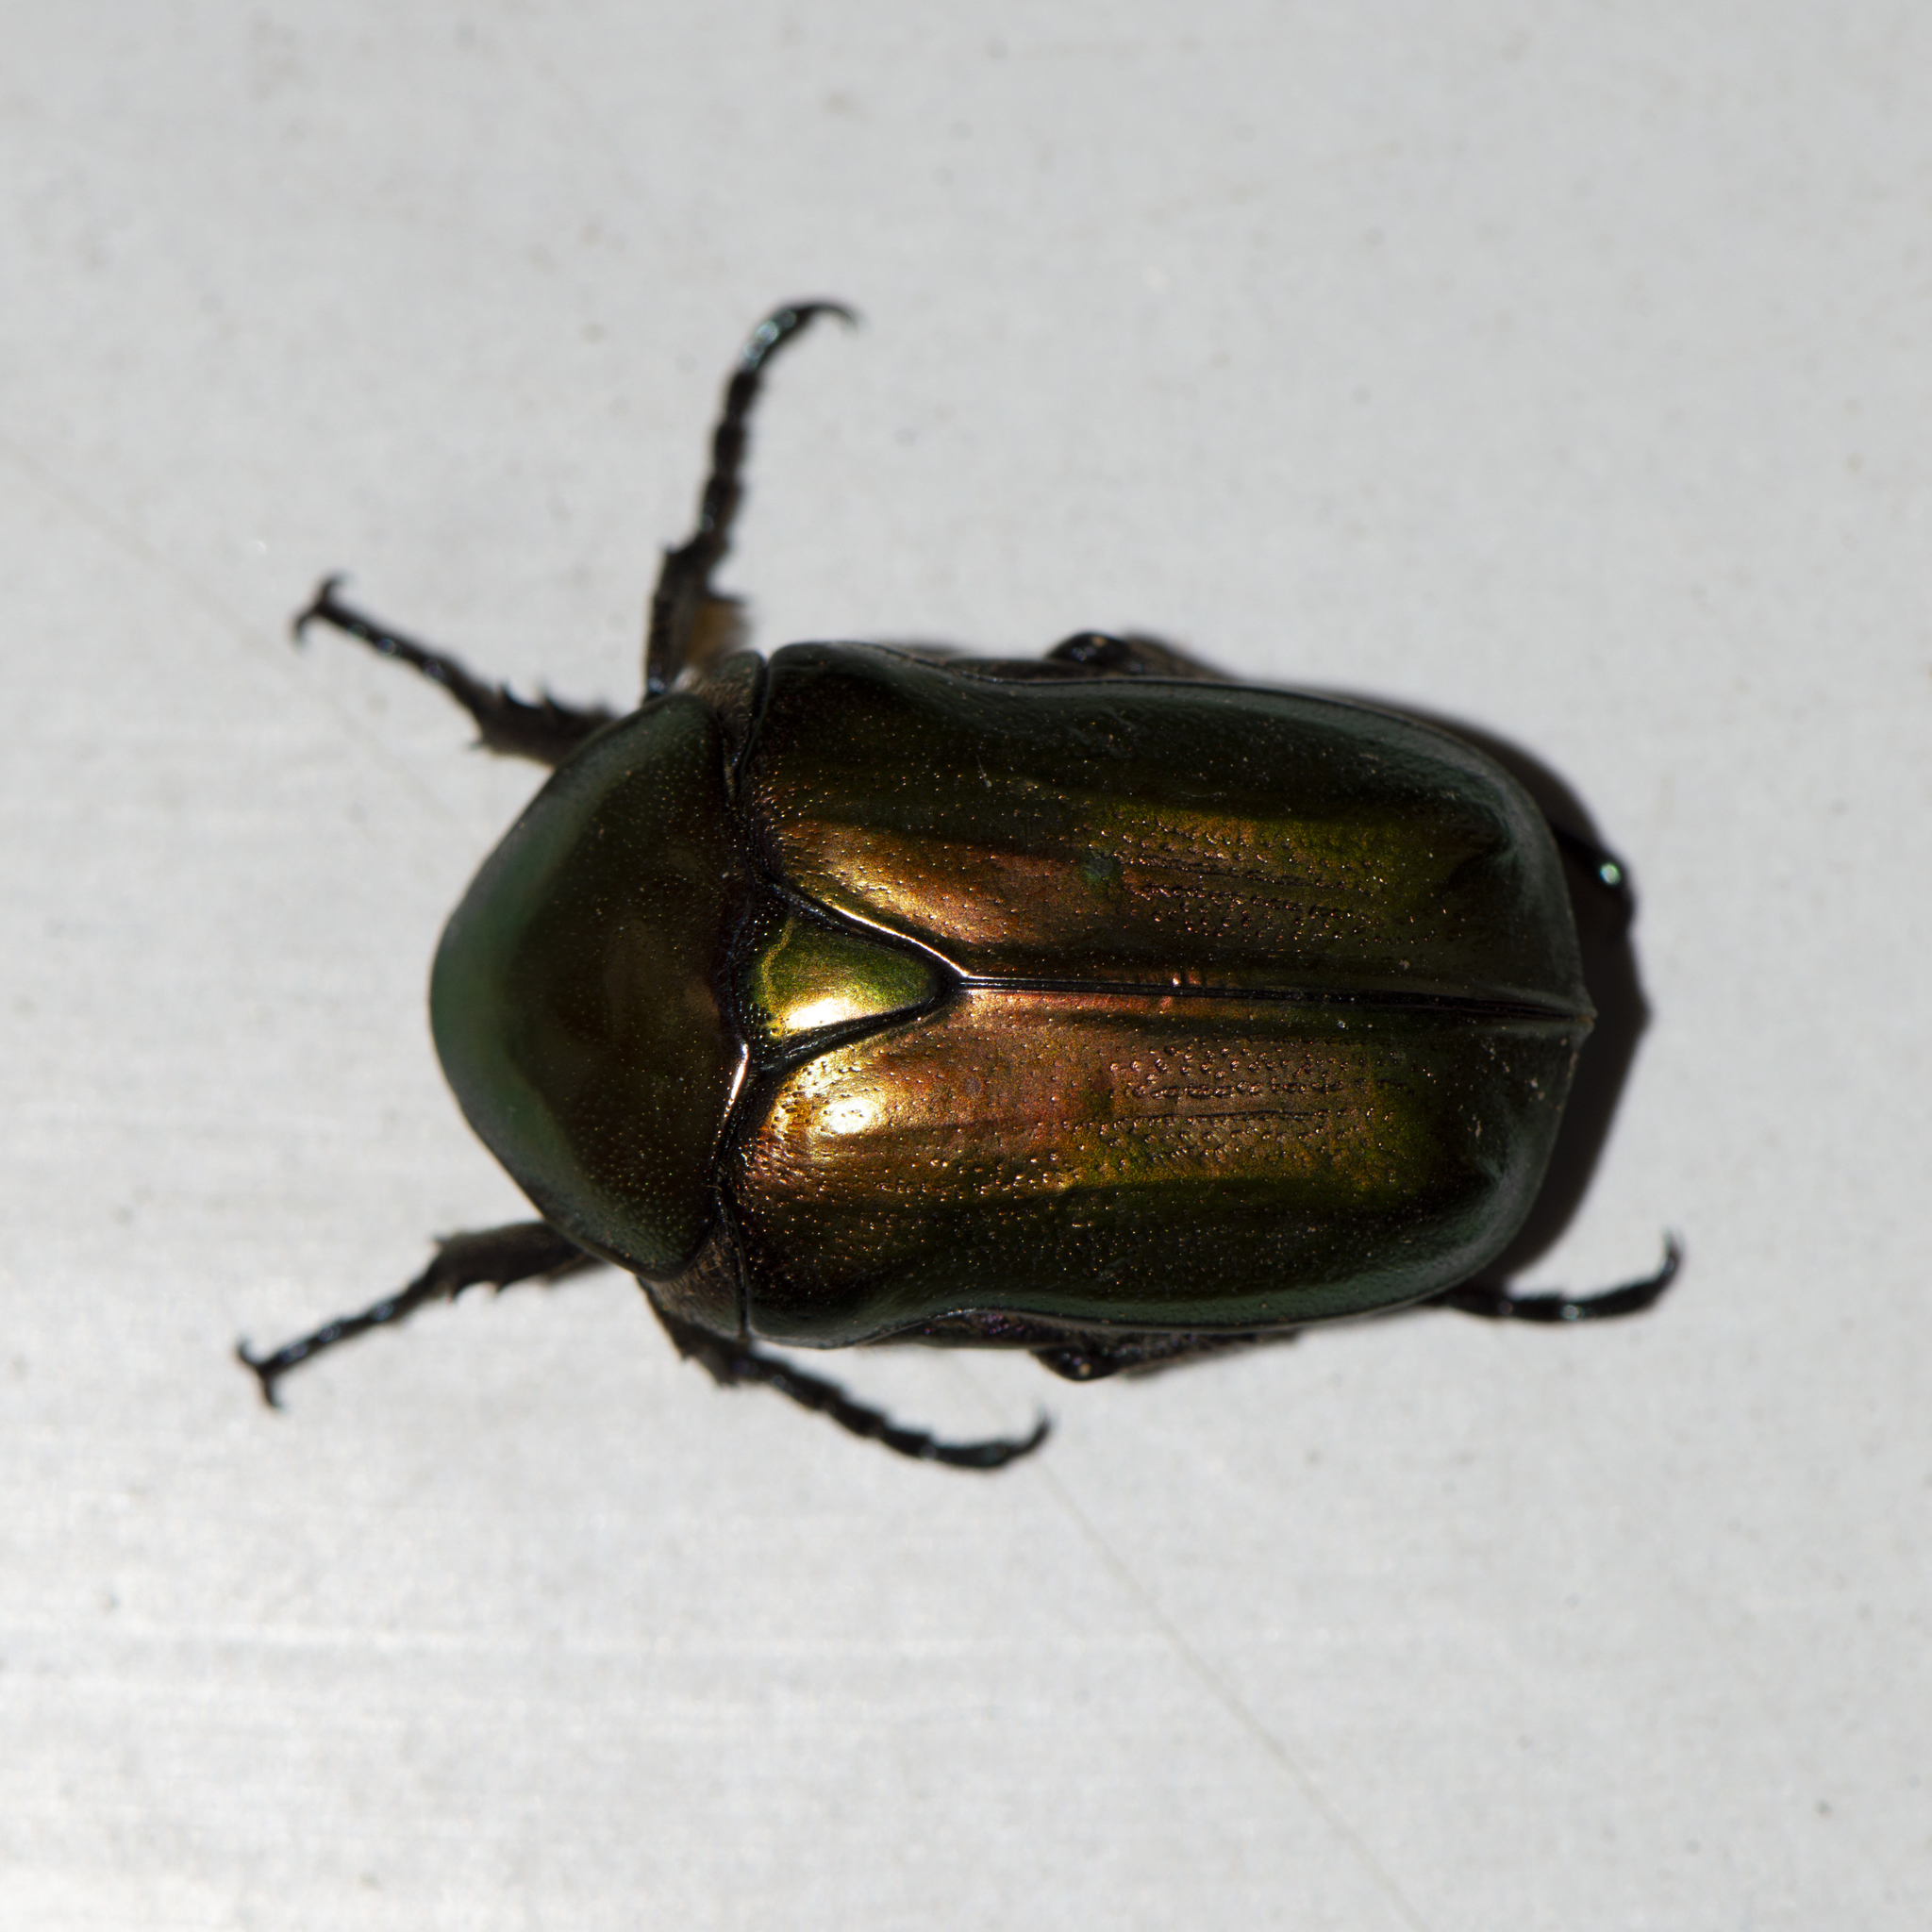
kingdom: Animalia
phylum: Arthropoda
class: Insecta
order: Coleoptera
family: Scarabaeidae
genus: Protaetia
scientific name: Protaetia cuprea
